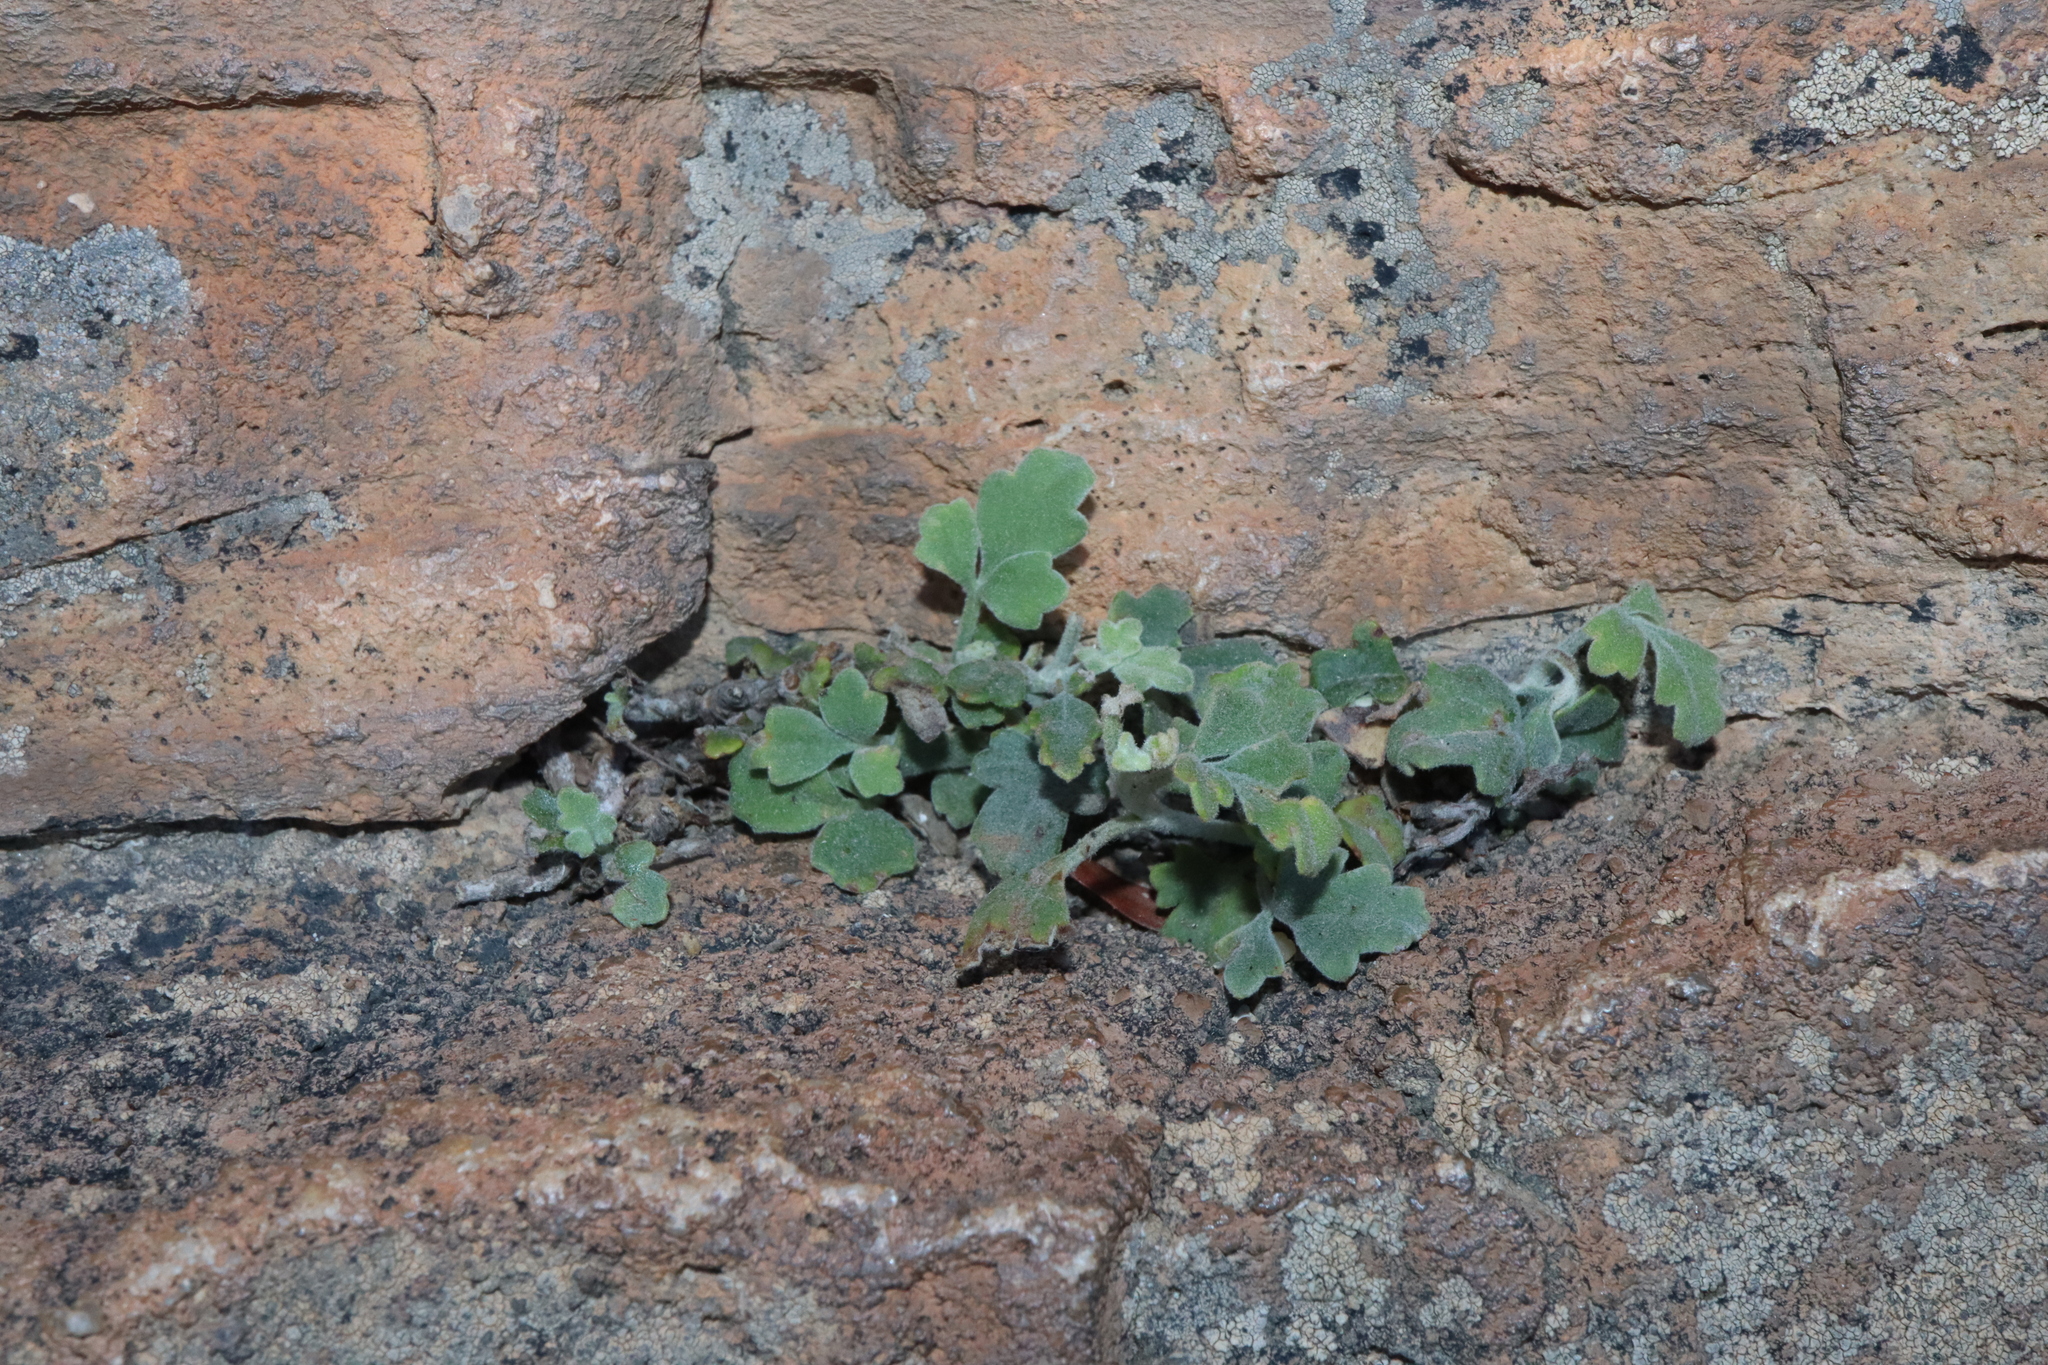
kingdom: Plantae
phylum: Tracheophyta
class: Magnoliopsida
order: Apiales
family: Apiaceae
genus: Xanthosia
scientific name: Xanthosia scopulicola
